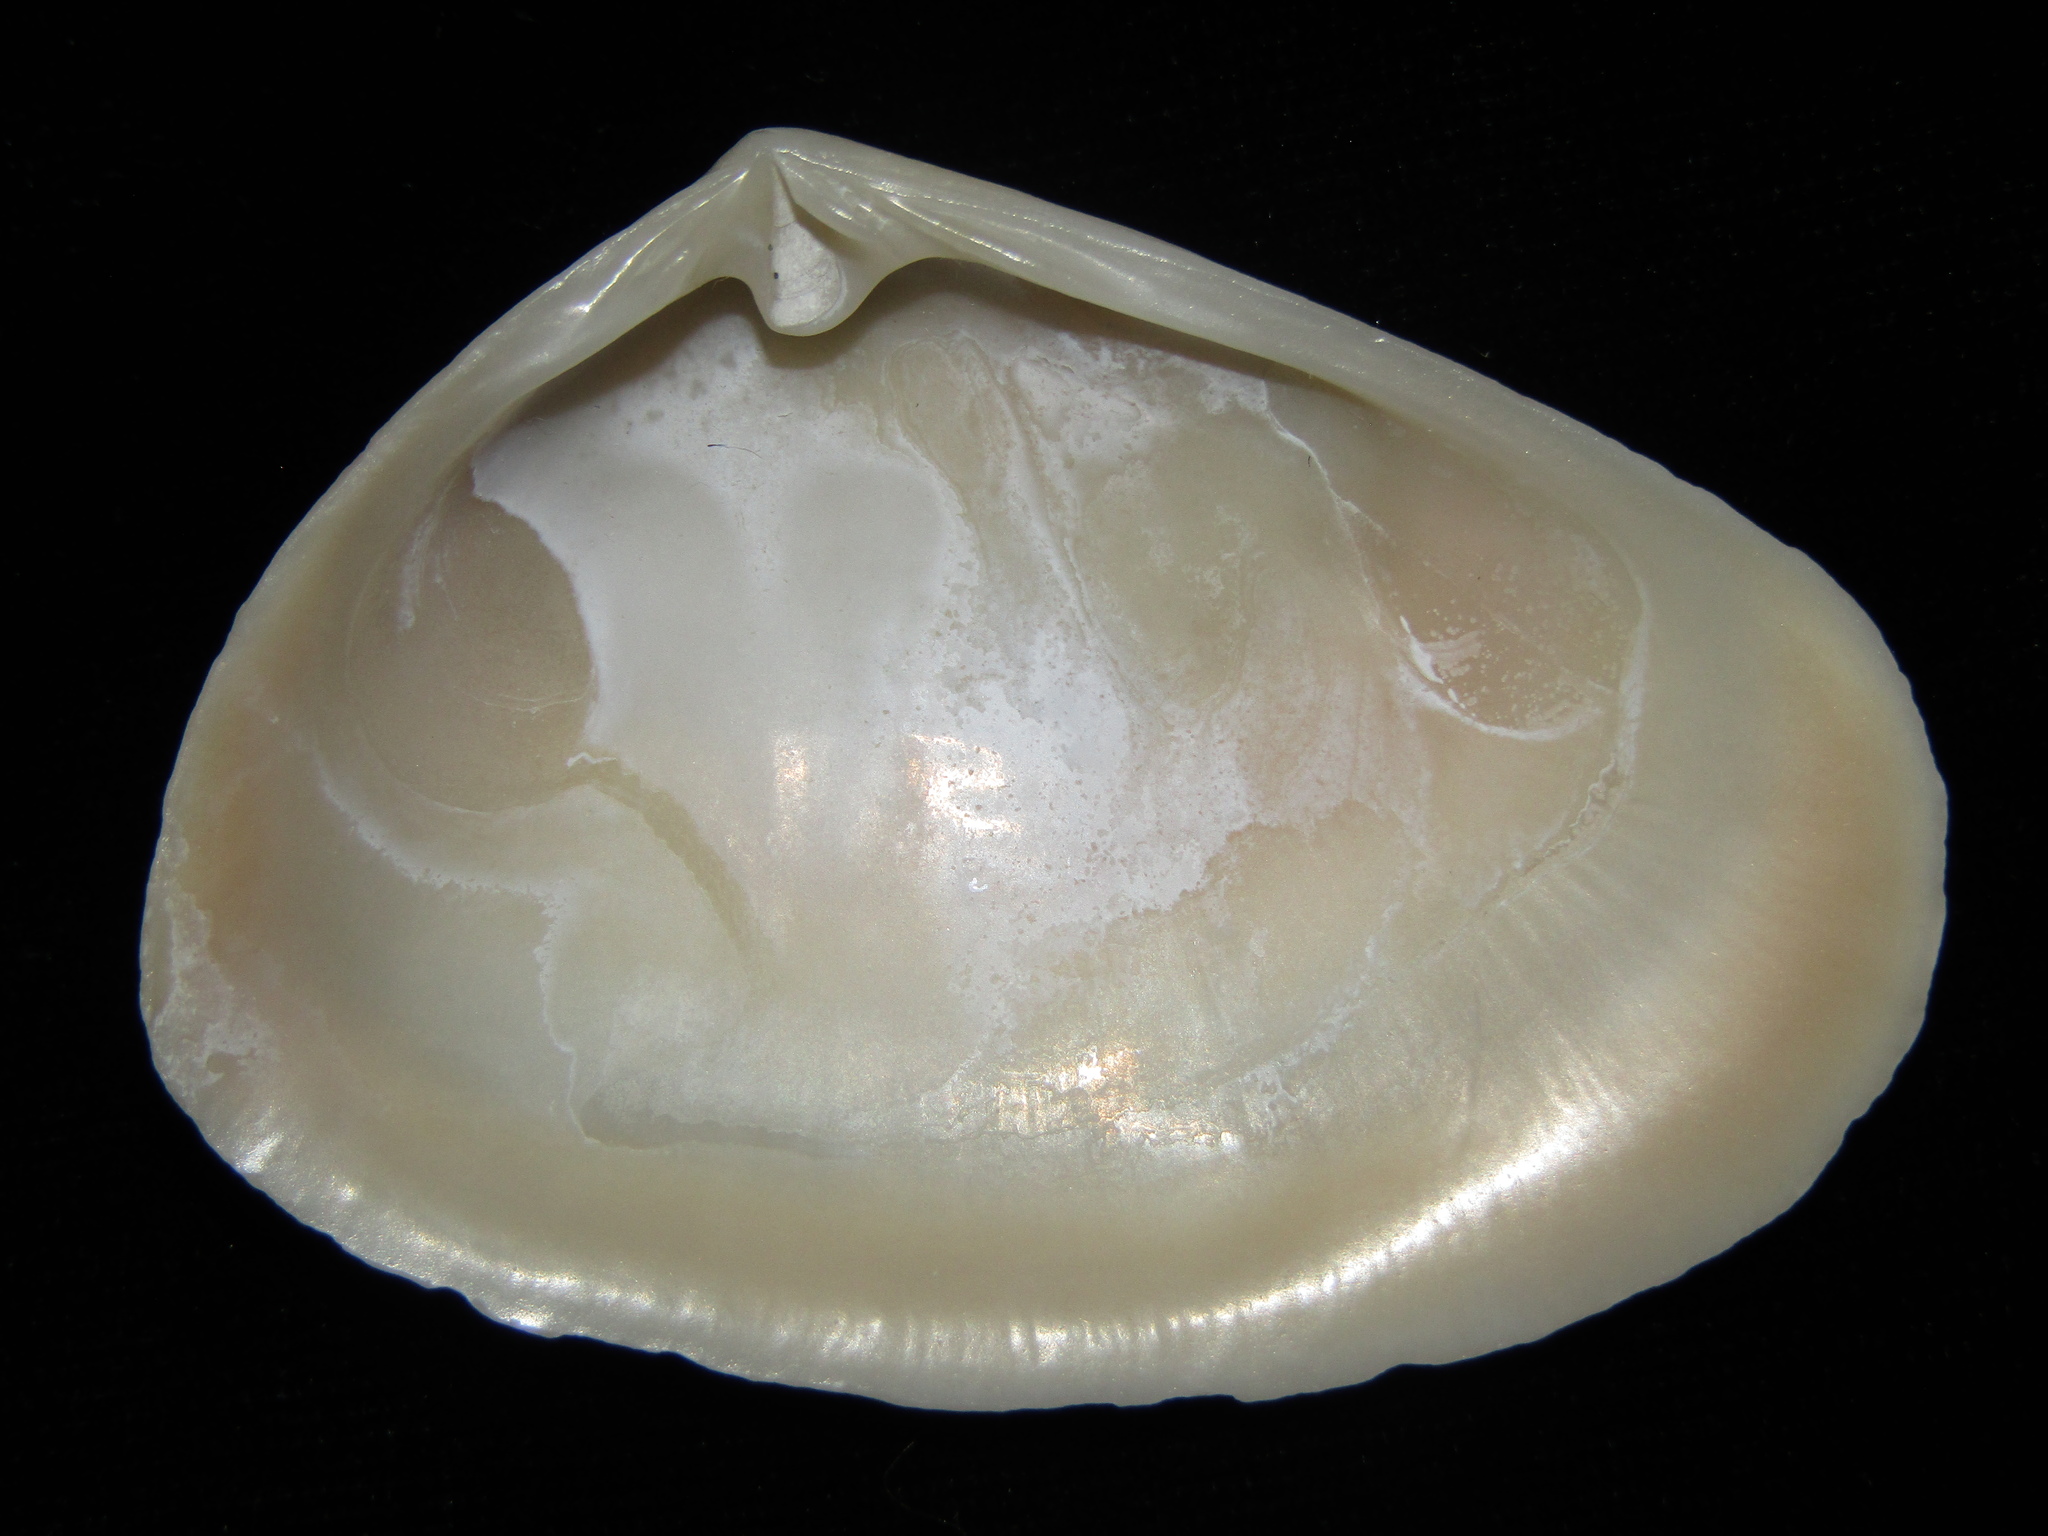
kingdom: Animalia
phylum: Mollusca
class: Bivalvia
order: Venerida
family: Mesodesmatidae
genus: Paphies
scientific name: Paphies subtriangulata
